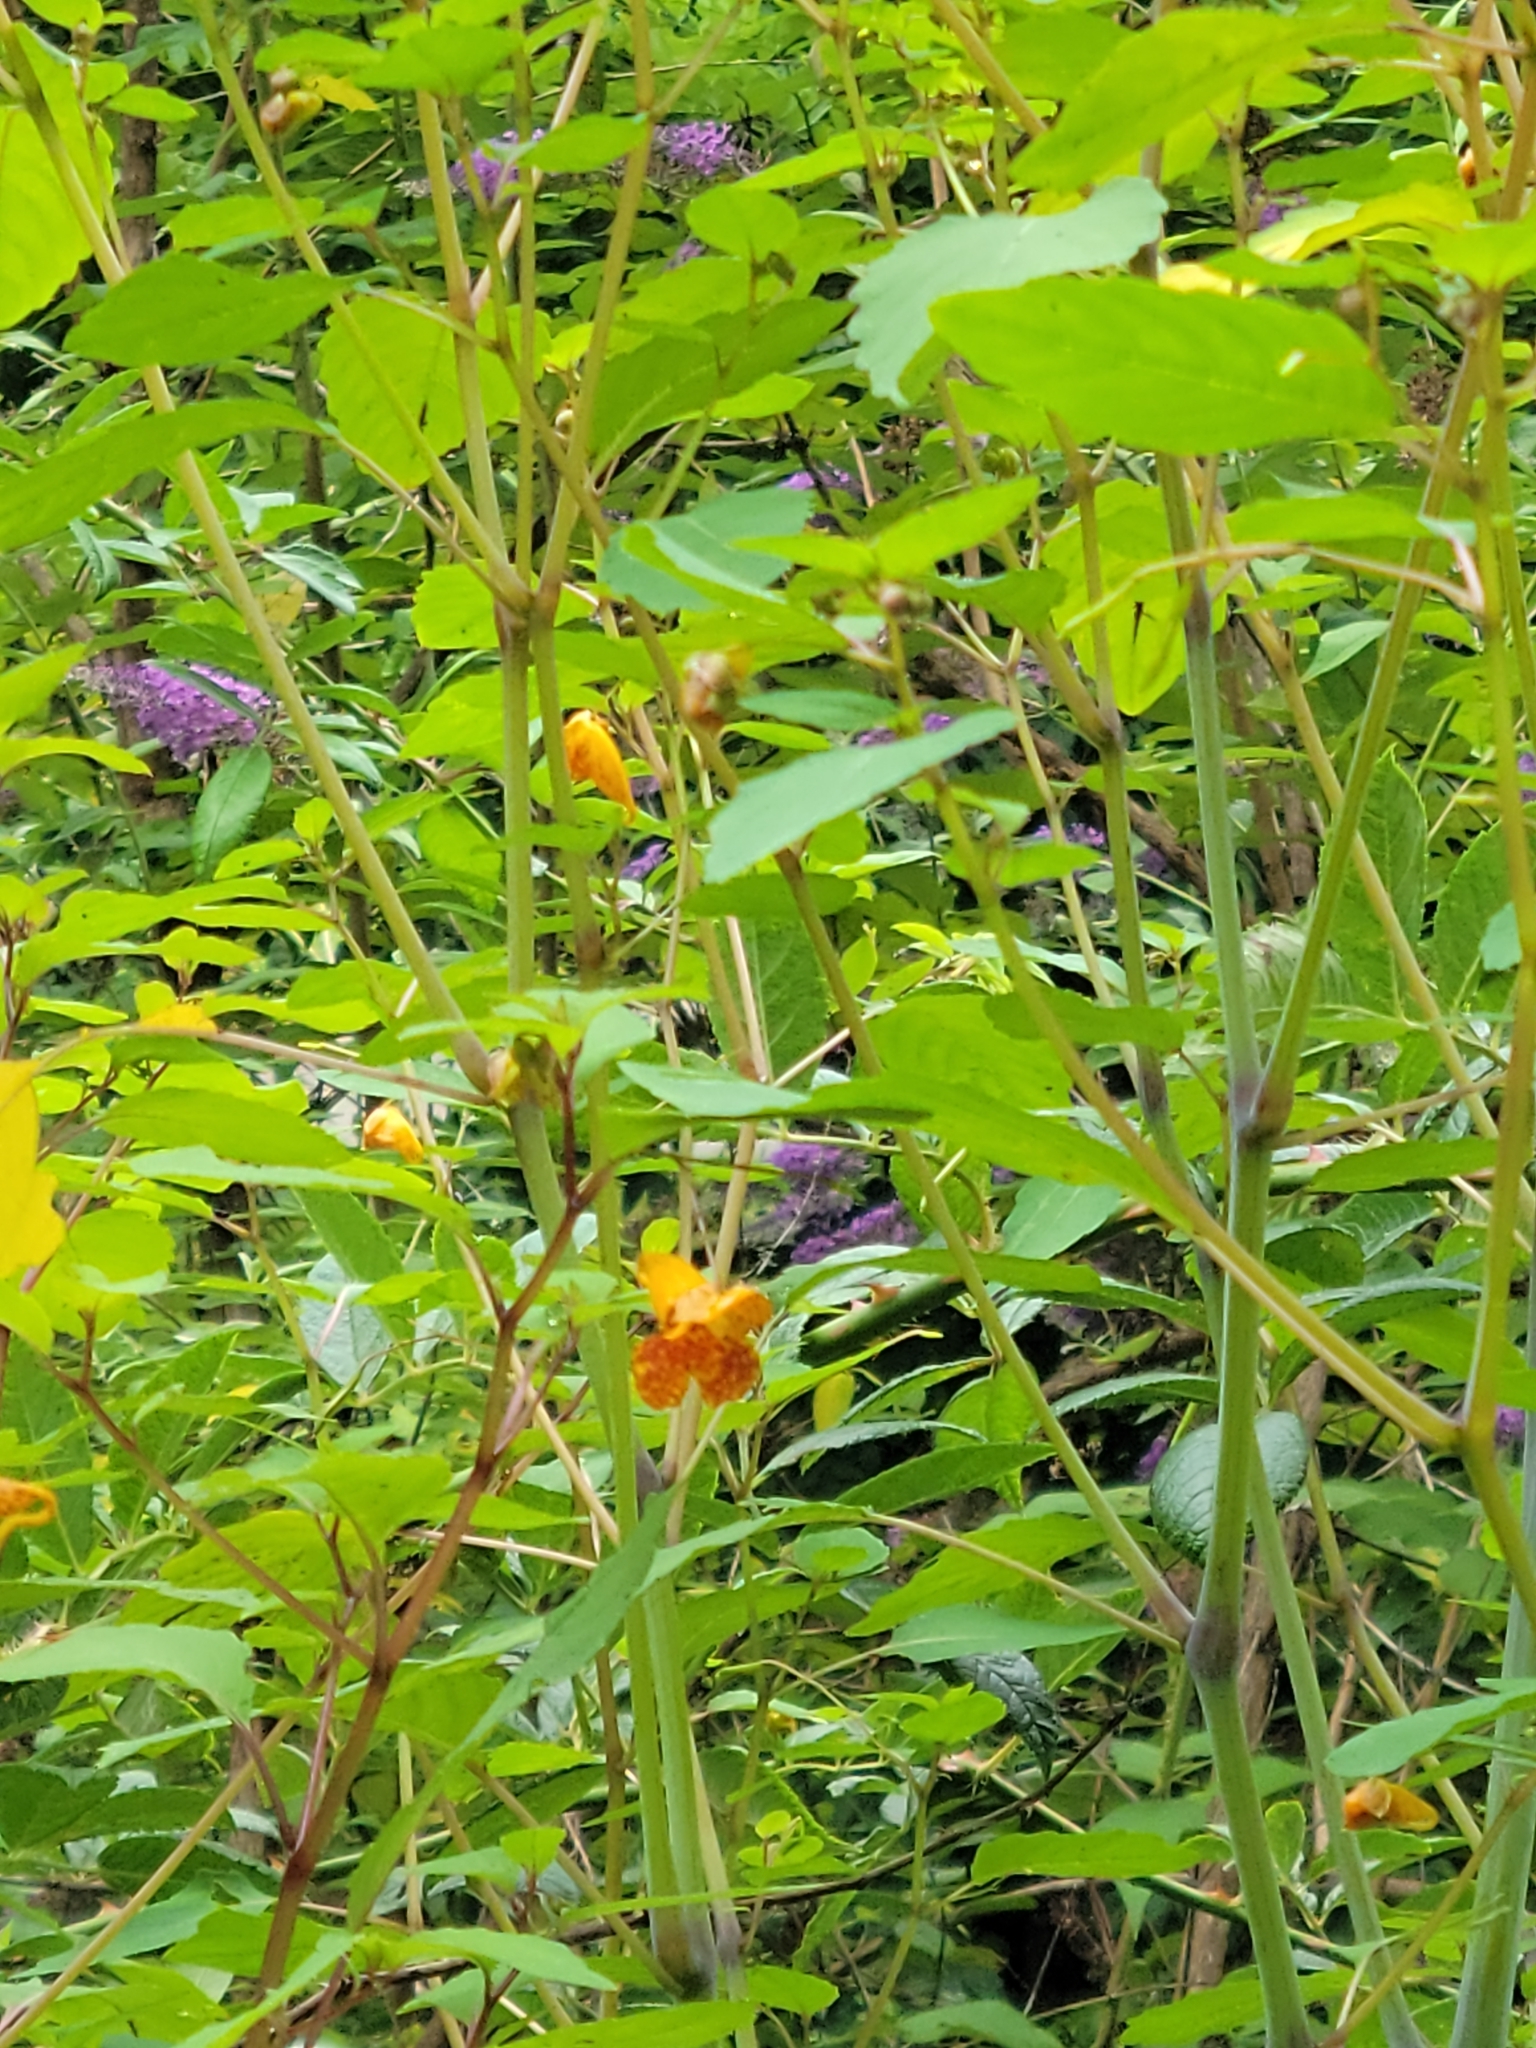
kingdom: Plantae
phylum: Tracheophyta
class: Magnoliopsida
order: Ericales
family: Balsaminaceae
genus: Impatiens
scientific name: Impatiens capensis
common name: Orange balsam
